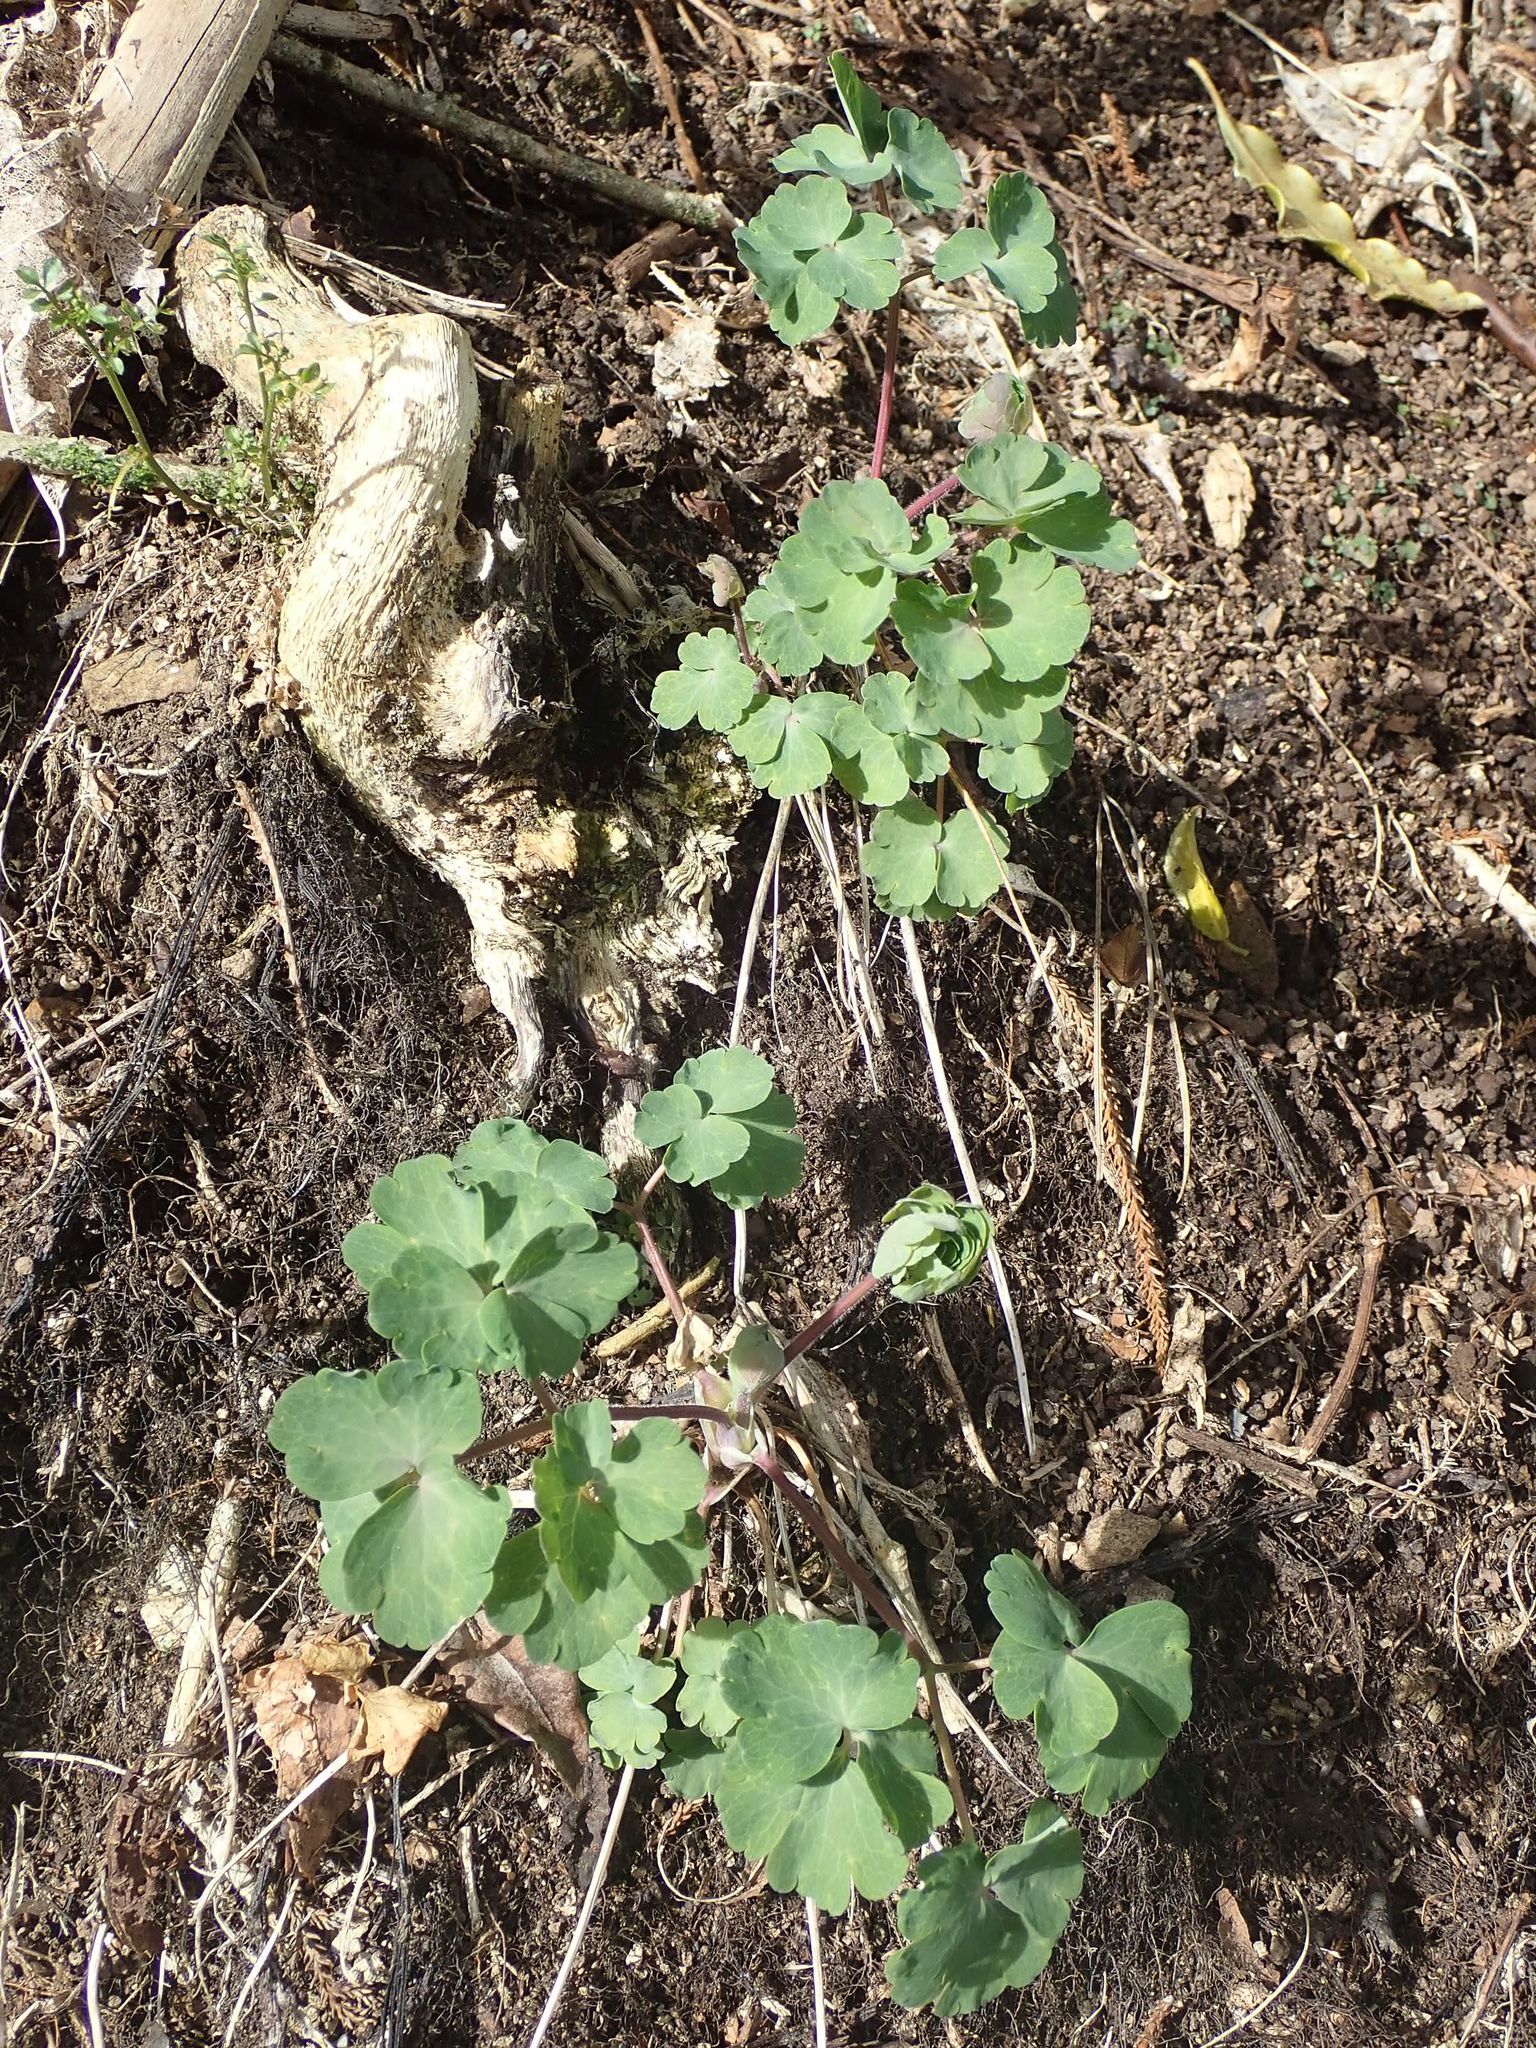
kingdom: Plantae
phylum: Tracheophyta
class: Magnoliopsida
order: Ranunculales
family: Ranunculaceae
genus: Aquilegia
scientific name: Aquilegia vulgaris
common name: Columbine
